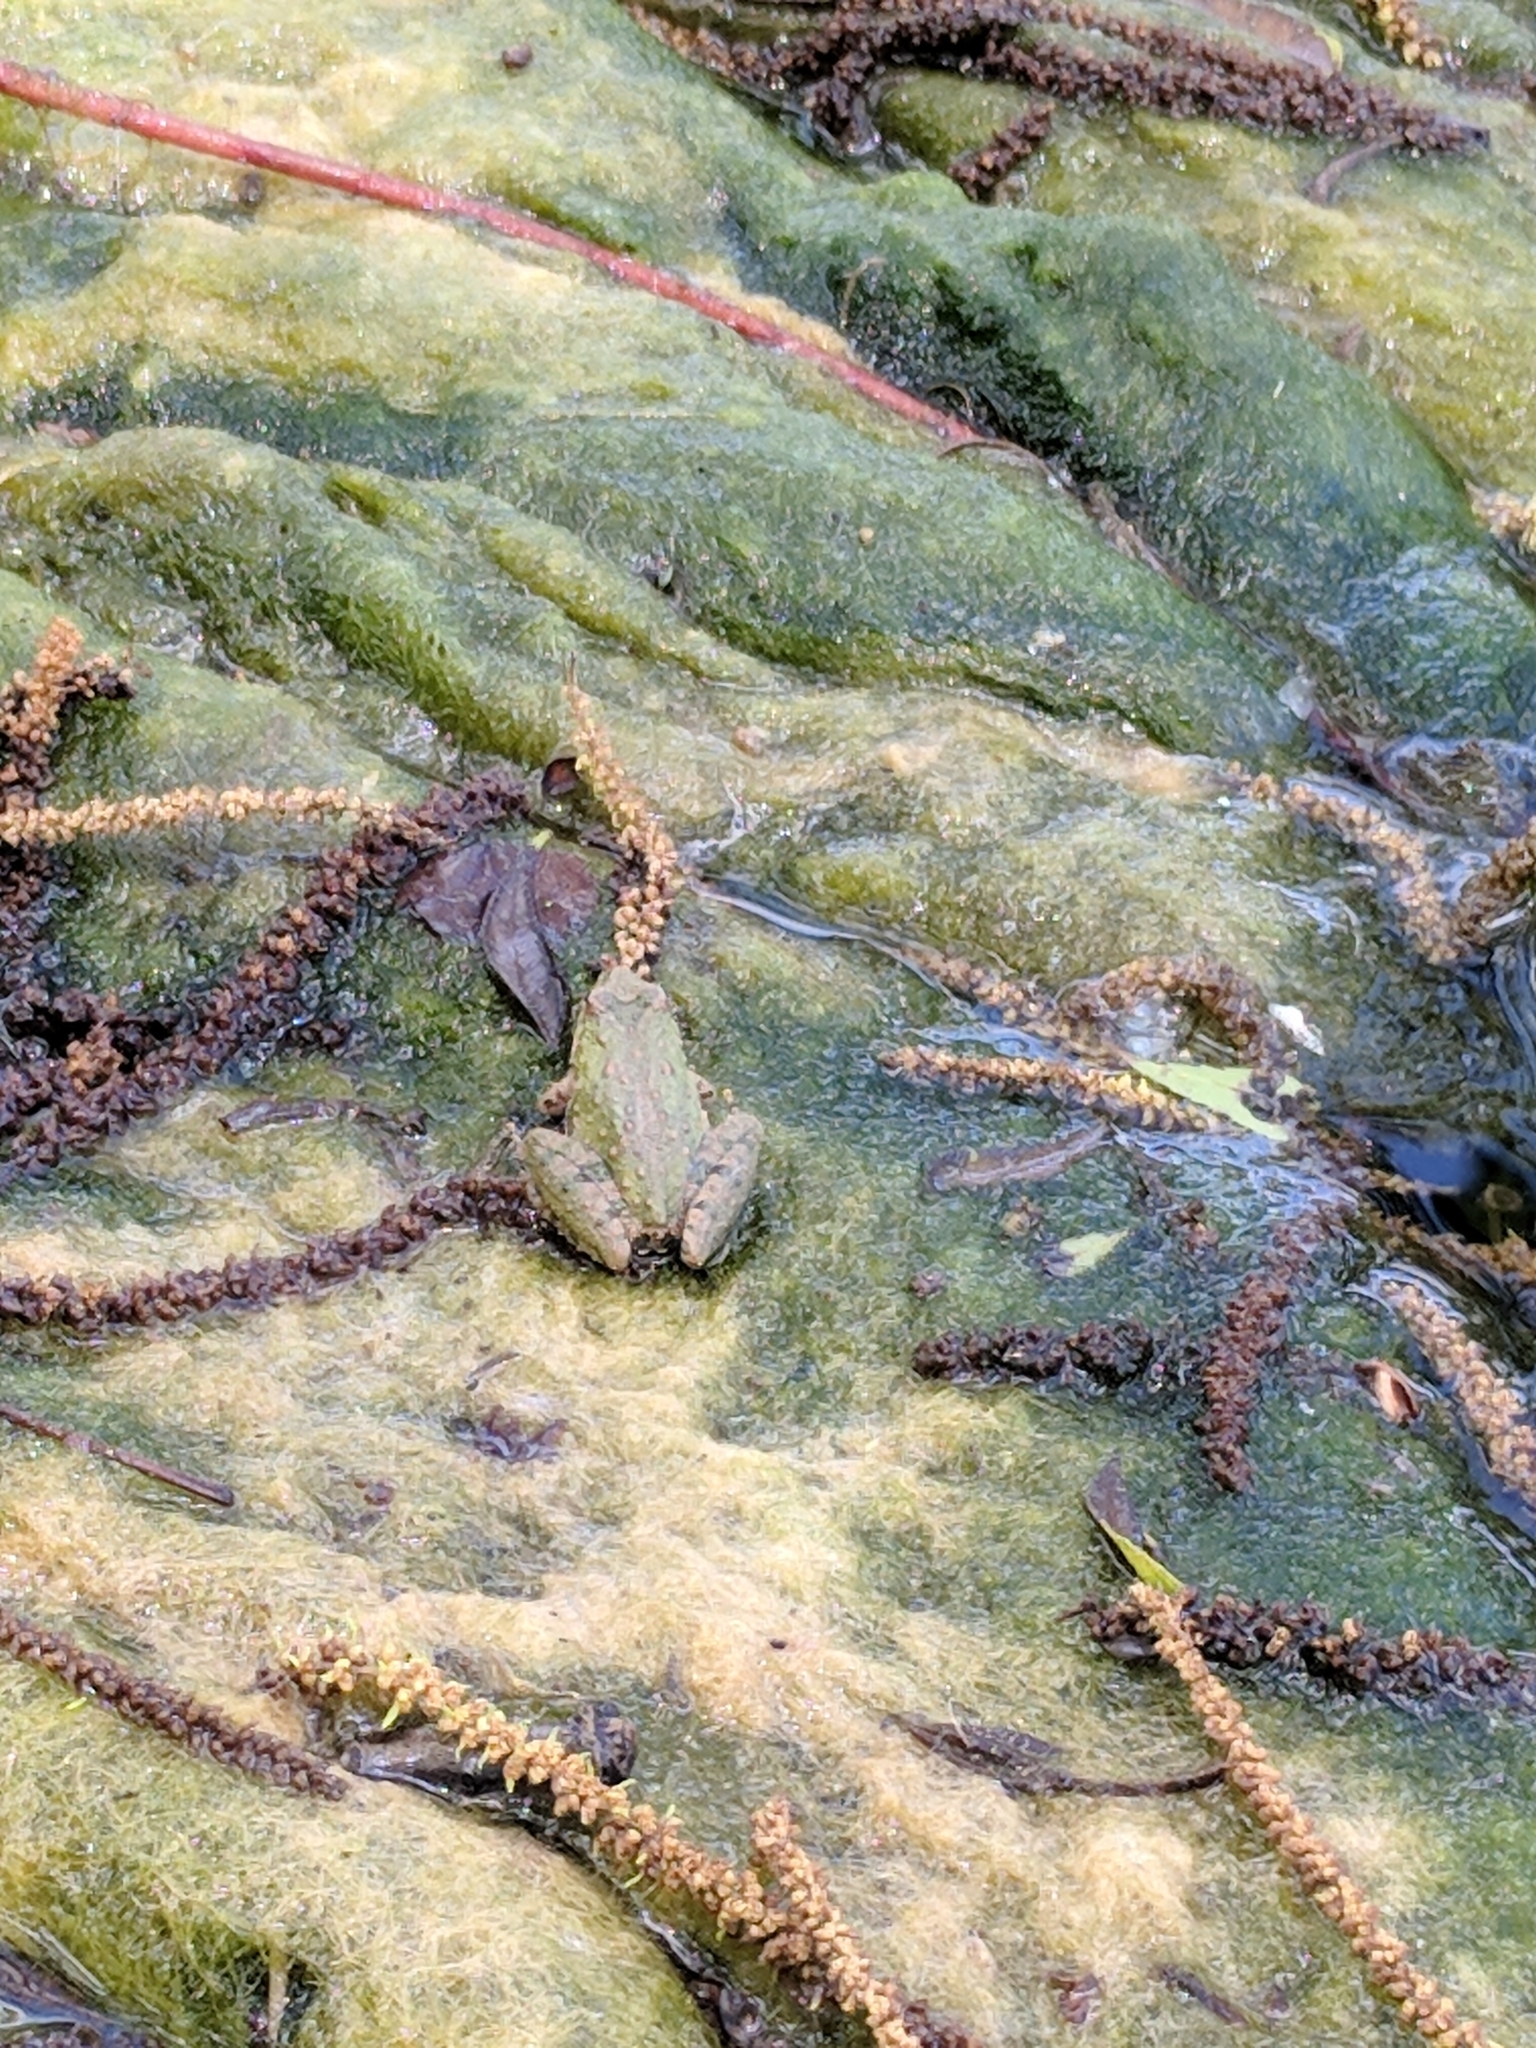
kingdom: Animalia
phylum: Chordata
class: Amphibia
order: Anura
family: Hylidae
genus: Acris
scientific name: Acris blanchardi
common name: Blanchard's cricket frog
